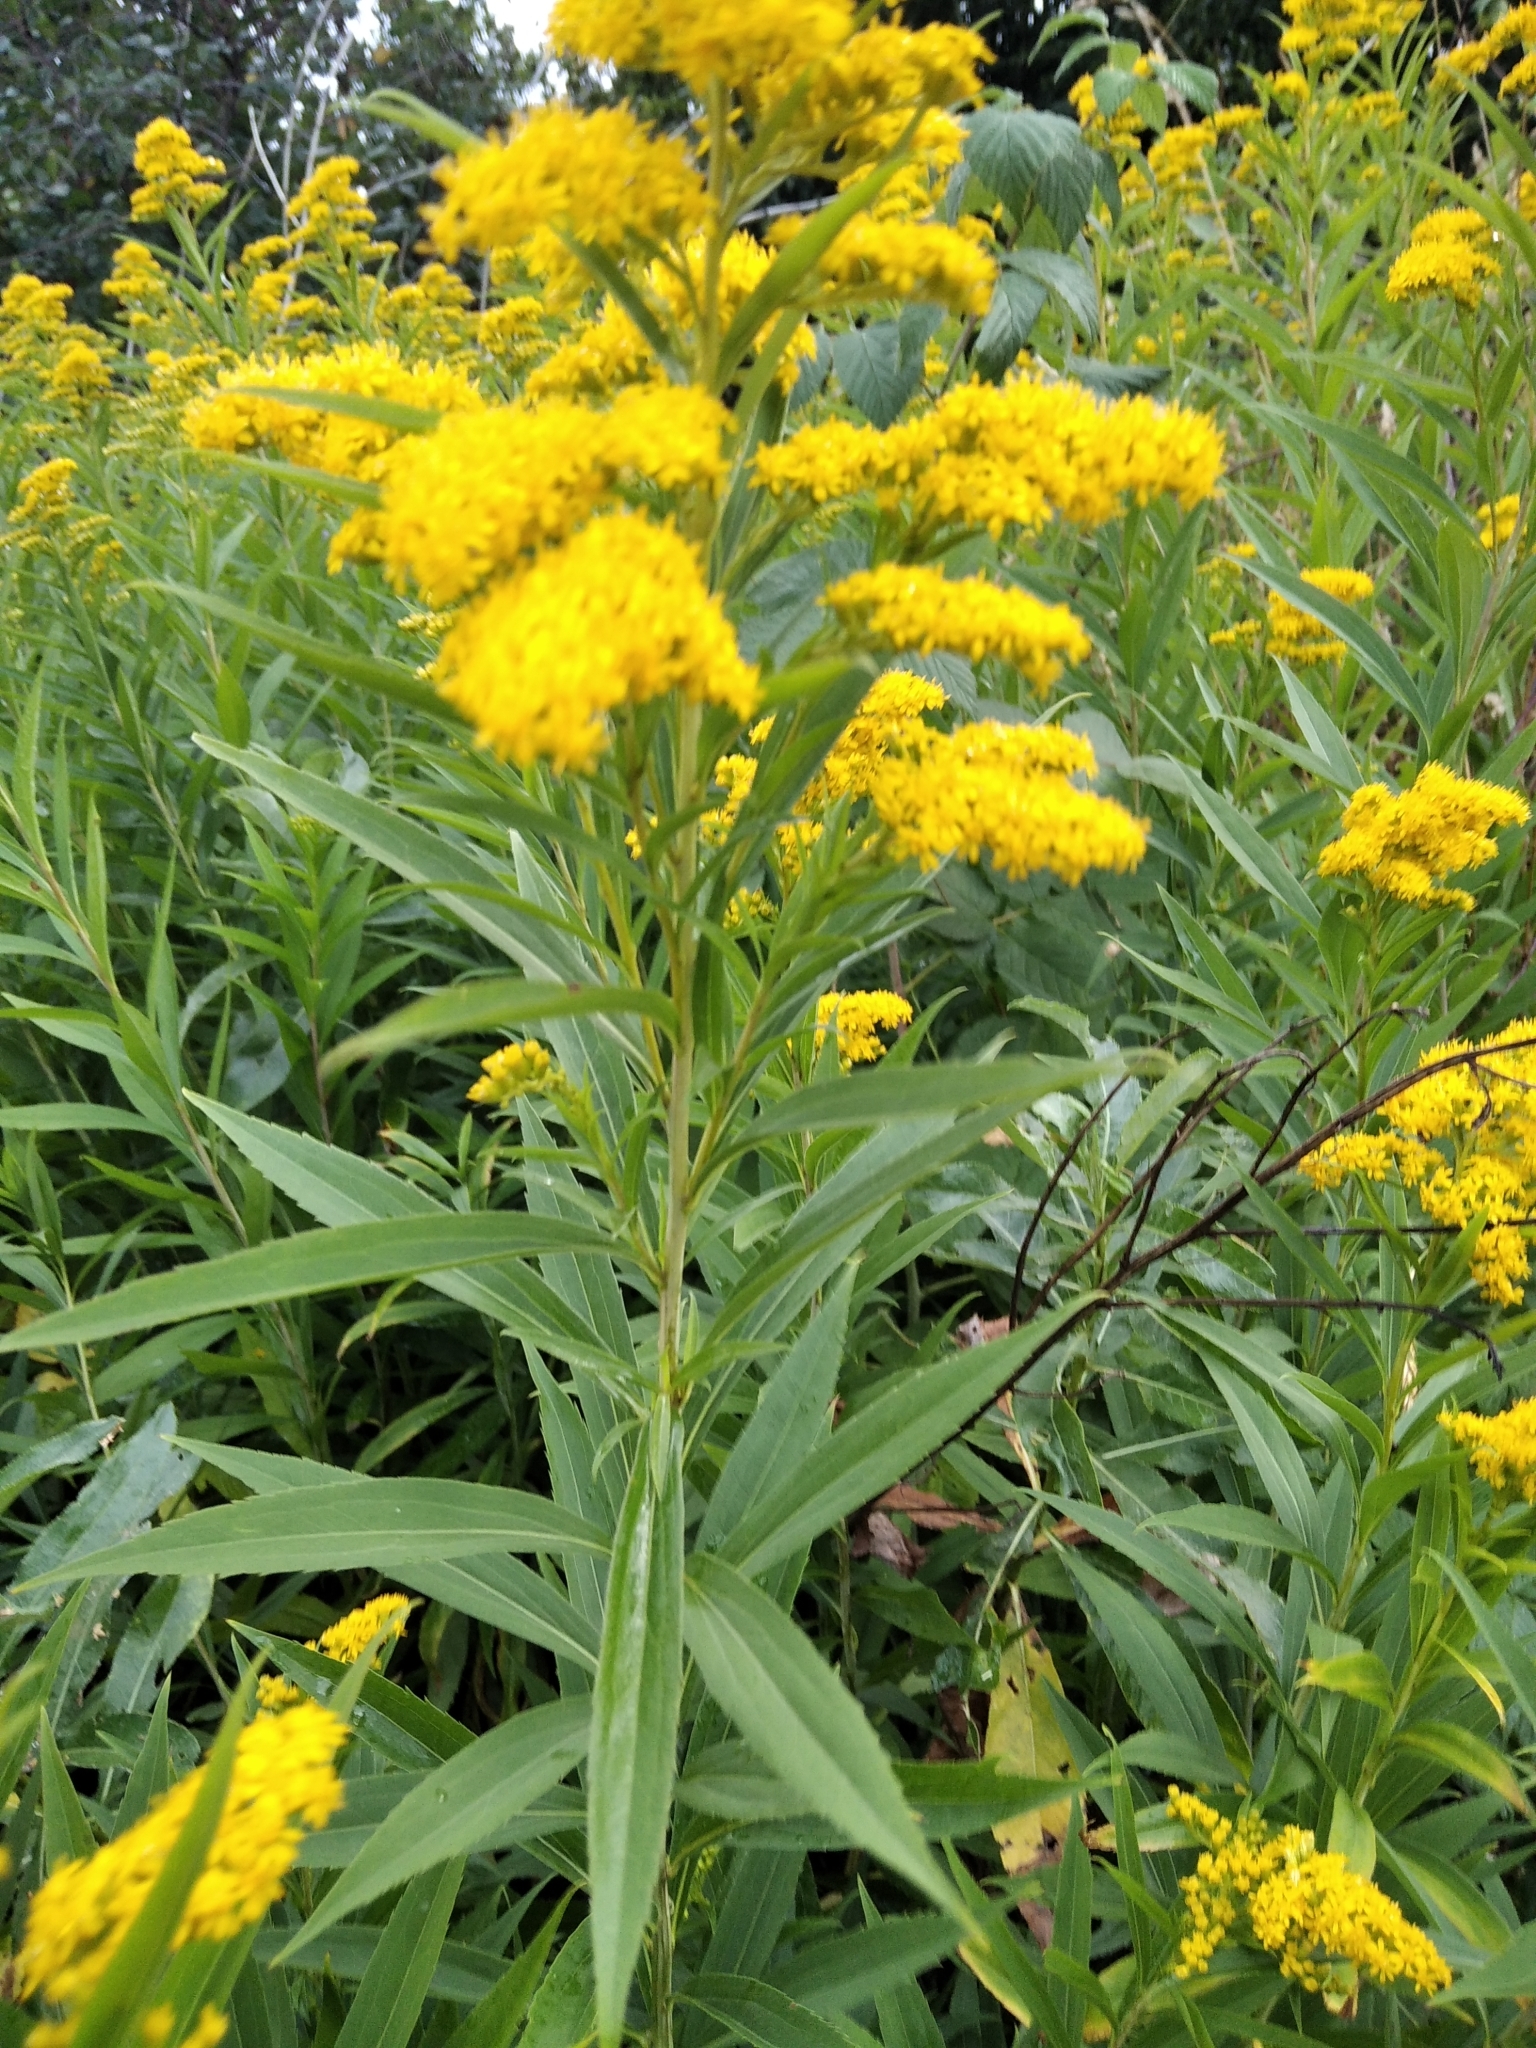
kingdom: Plantae
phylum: Tracheophyta
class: Magnoliopsida
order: Asterales
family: Asteraceae
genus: Solidago
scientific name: Solidago gigantea
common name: Giant goldenrod
